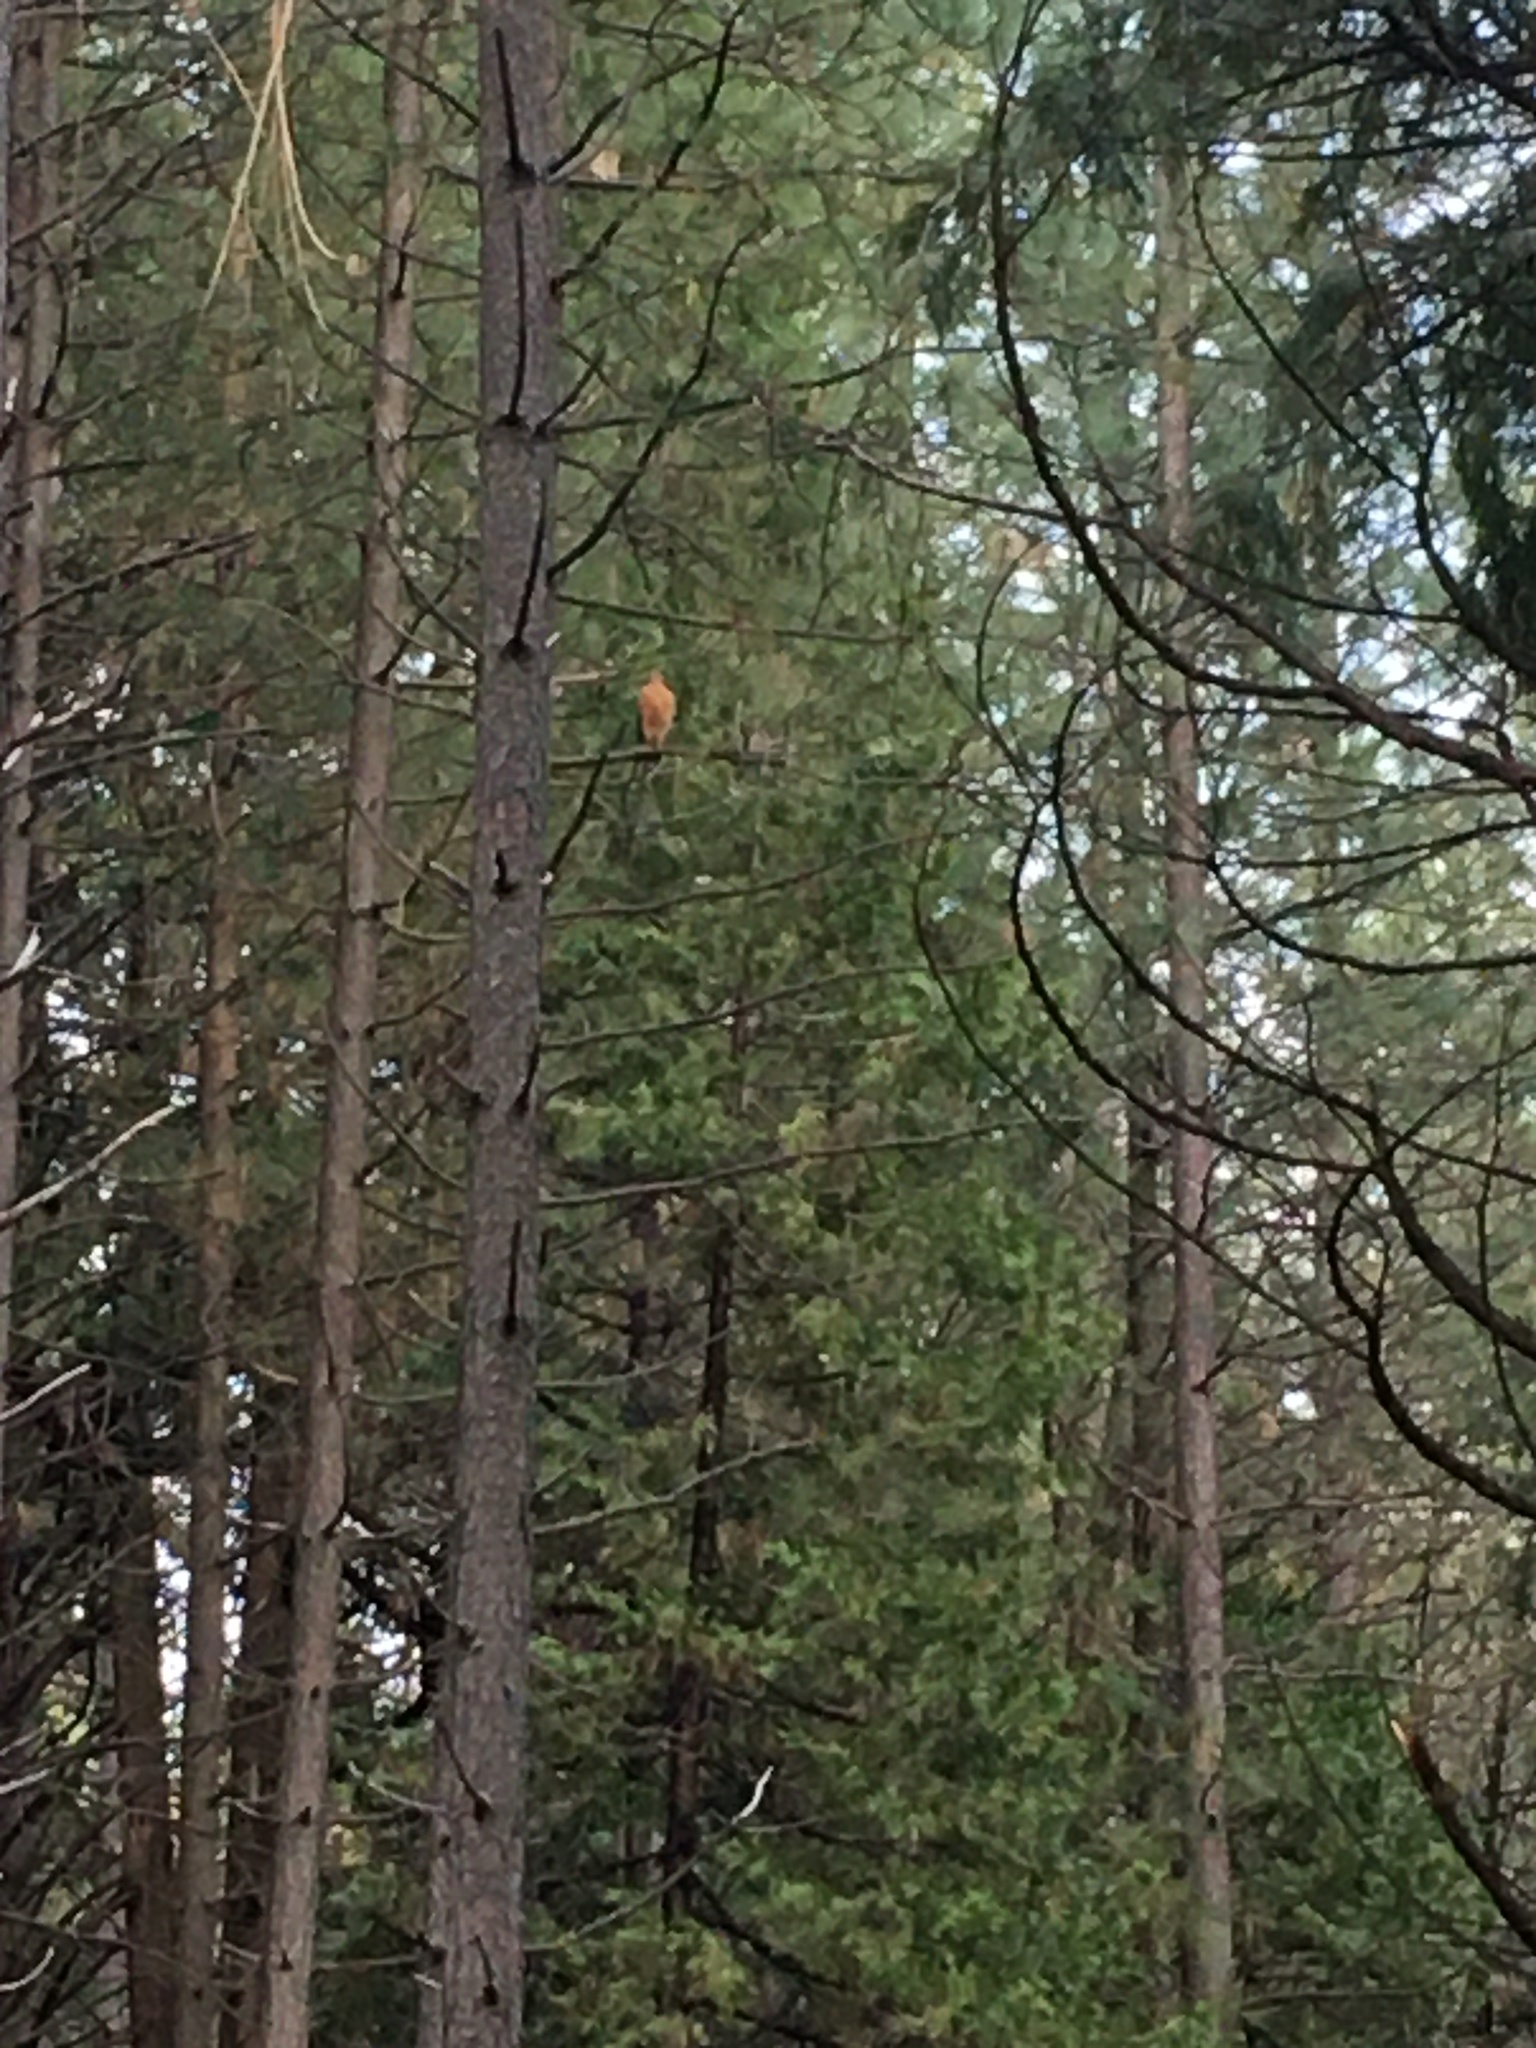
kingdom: Animalia
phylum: Chordata
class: Aves
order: Accipitriformes
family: Accipitridae
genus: Buteo
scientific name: Buteo lineatus
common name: Red-shouldered hawk
